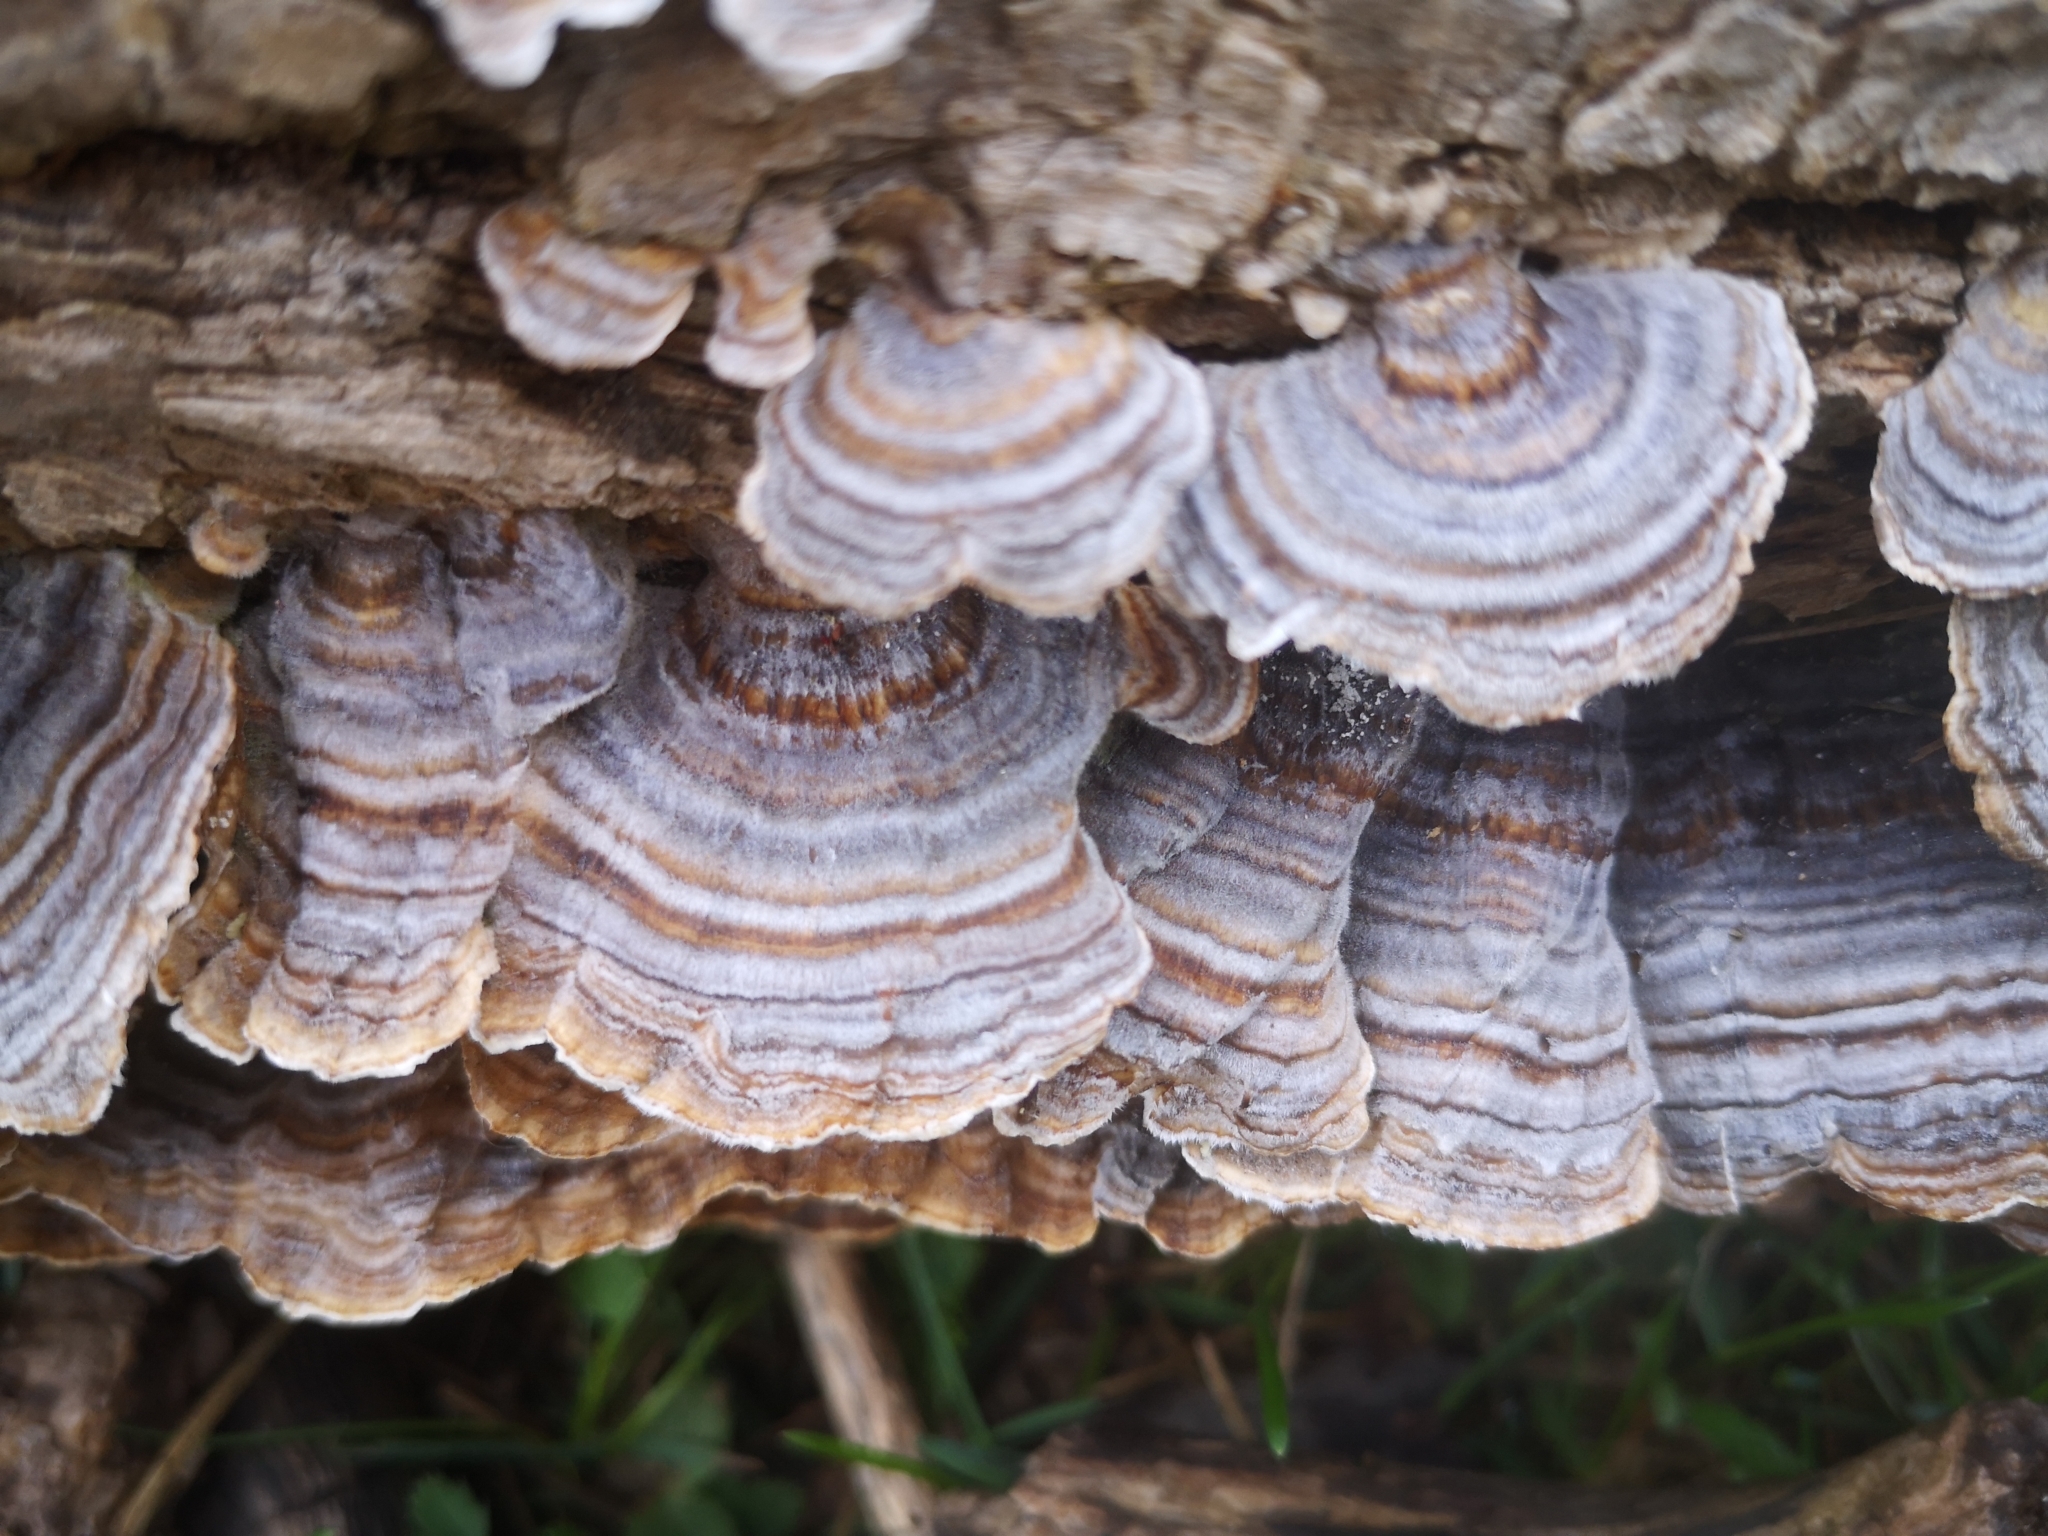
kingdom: Fungi
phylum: Basidiomycota
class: Agaricomycetes
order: Polyporales
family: Polyporaceae
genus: Trametes
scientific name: Trametes versicolor
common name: Turkeytail
